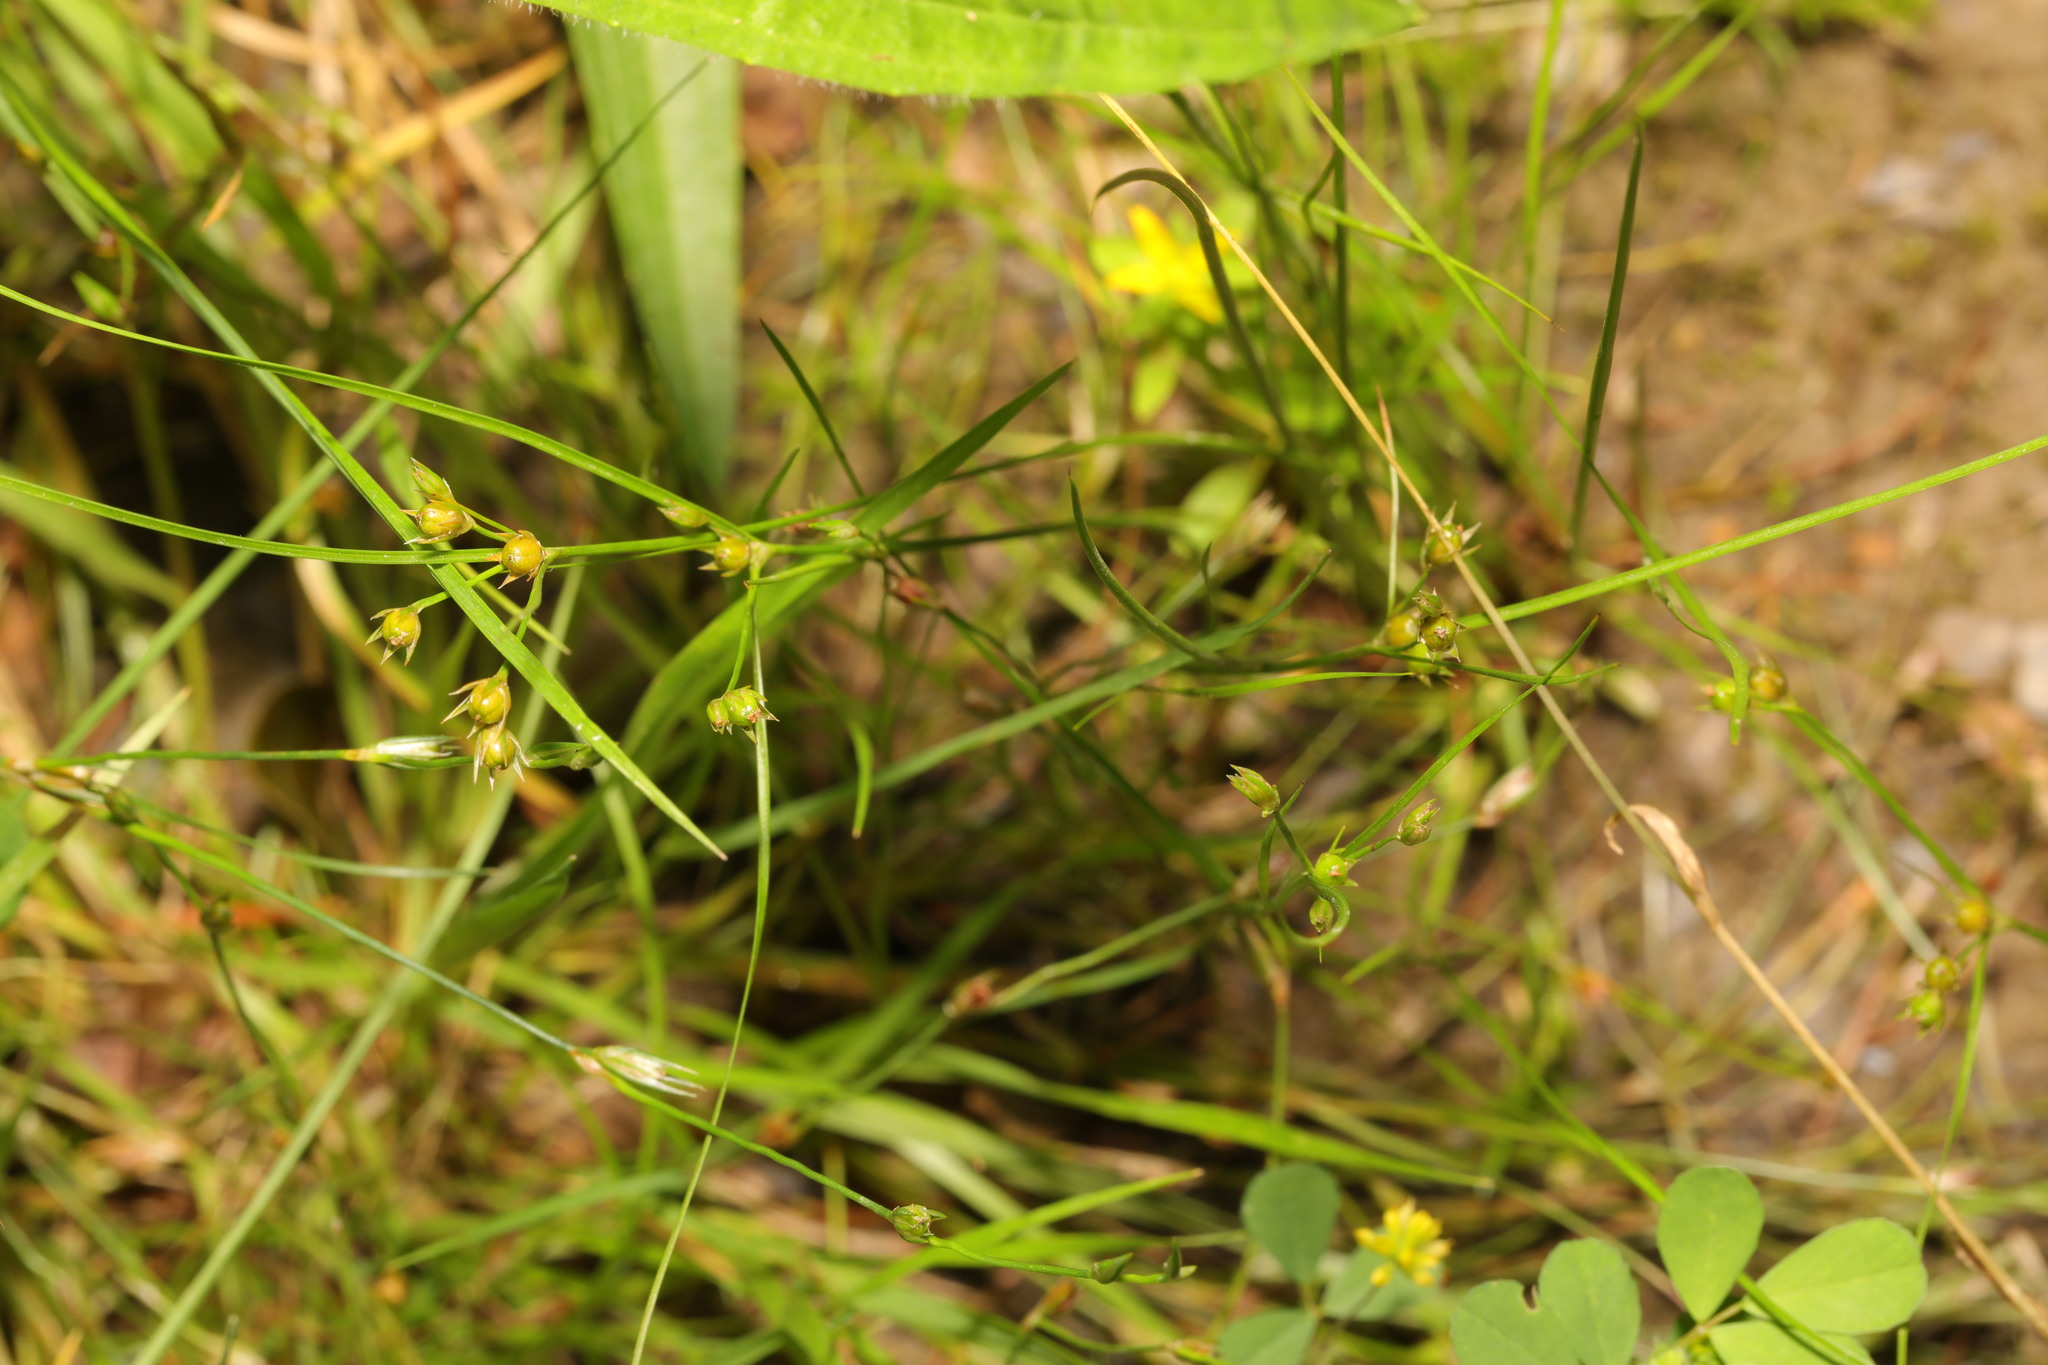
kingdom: Plantae
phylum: Tracheophyta
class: Liliopsida
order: Poales
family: Juncaceae
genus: Juncus
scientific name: Juncus tenuis
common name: Slender rush
